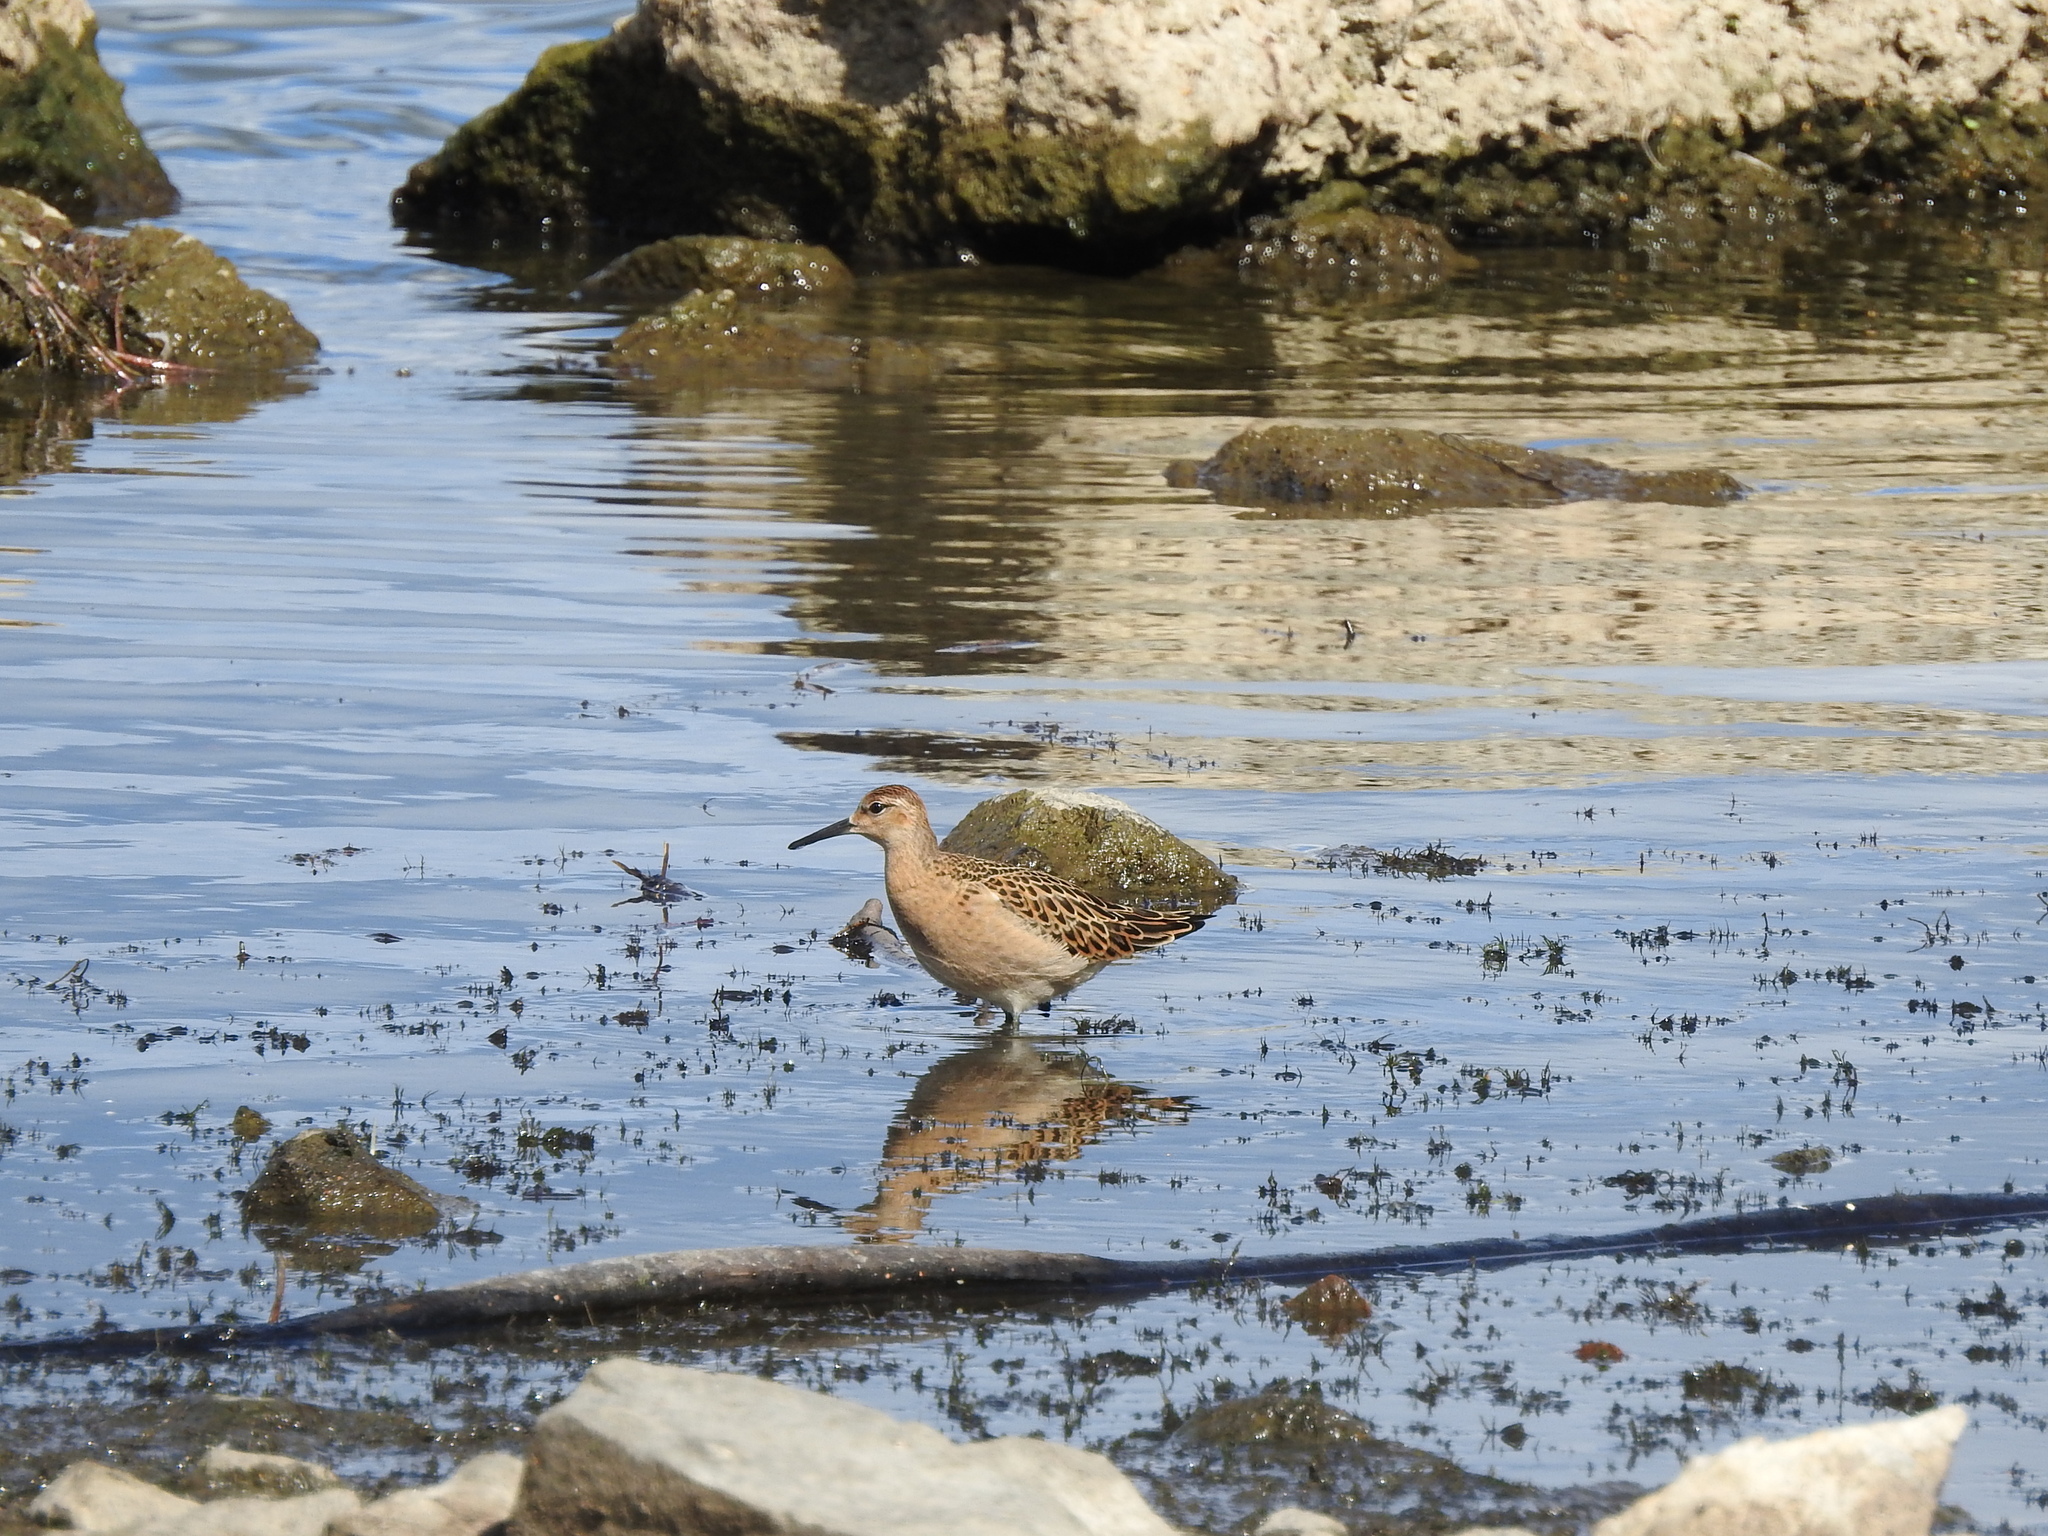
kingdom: Animalia
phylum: Chordata
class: Aves
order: Charadriiformes
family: Scolopacidae
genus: Calidris
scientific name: Calidris pugnax
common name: Ruff
